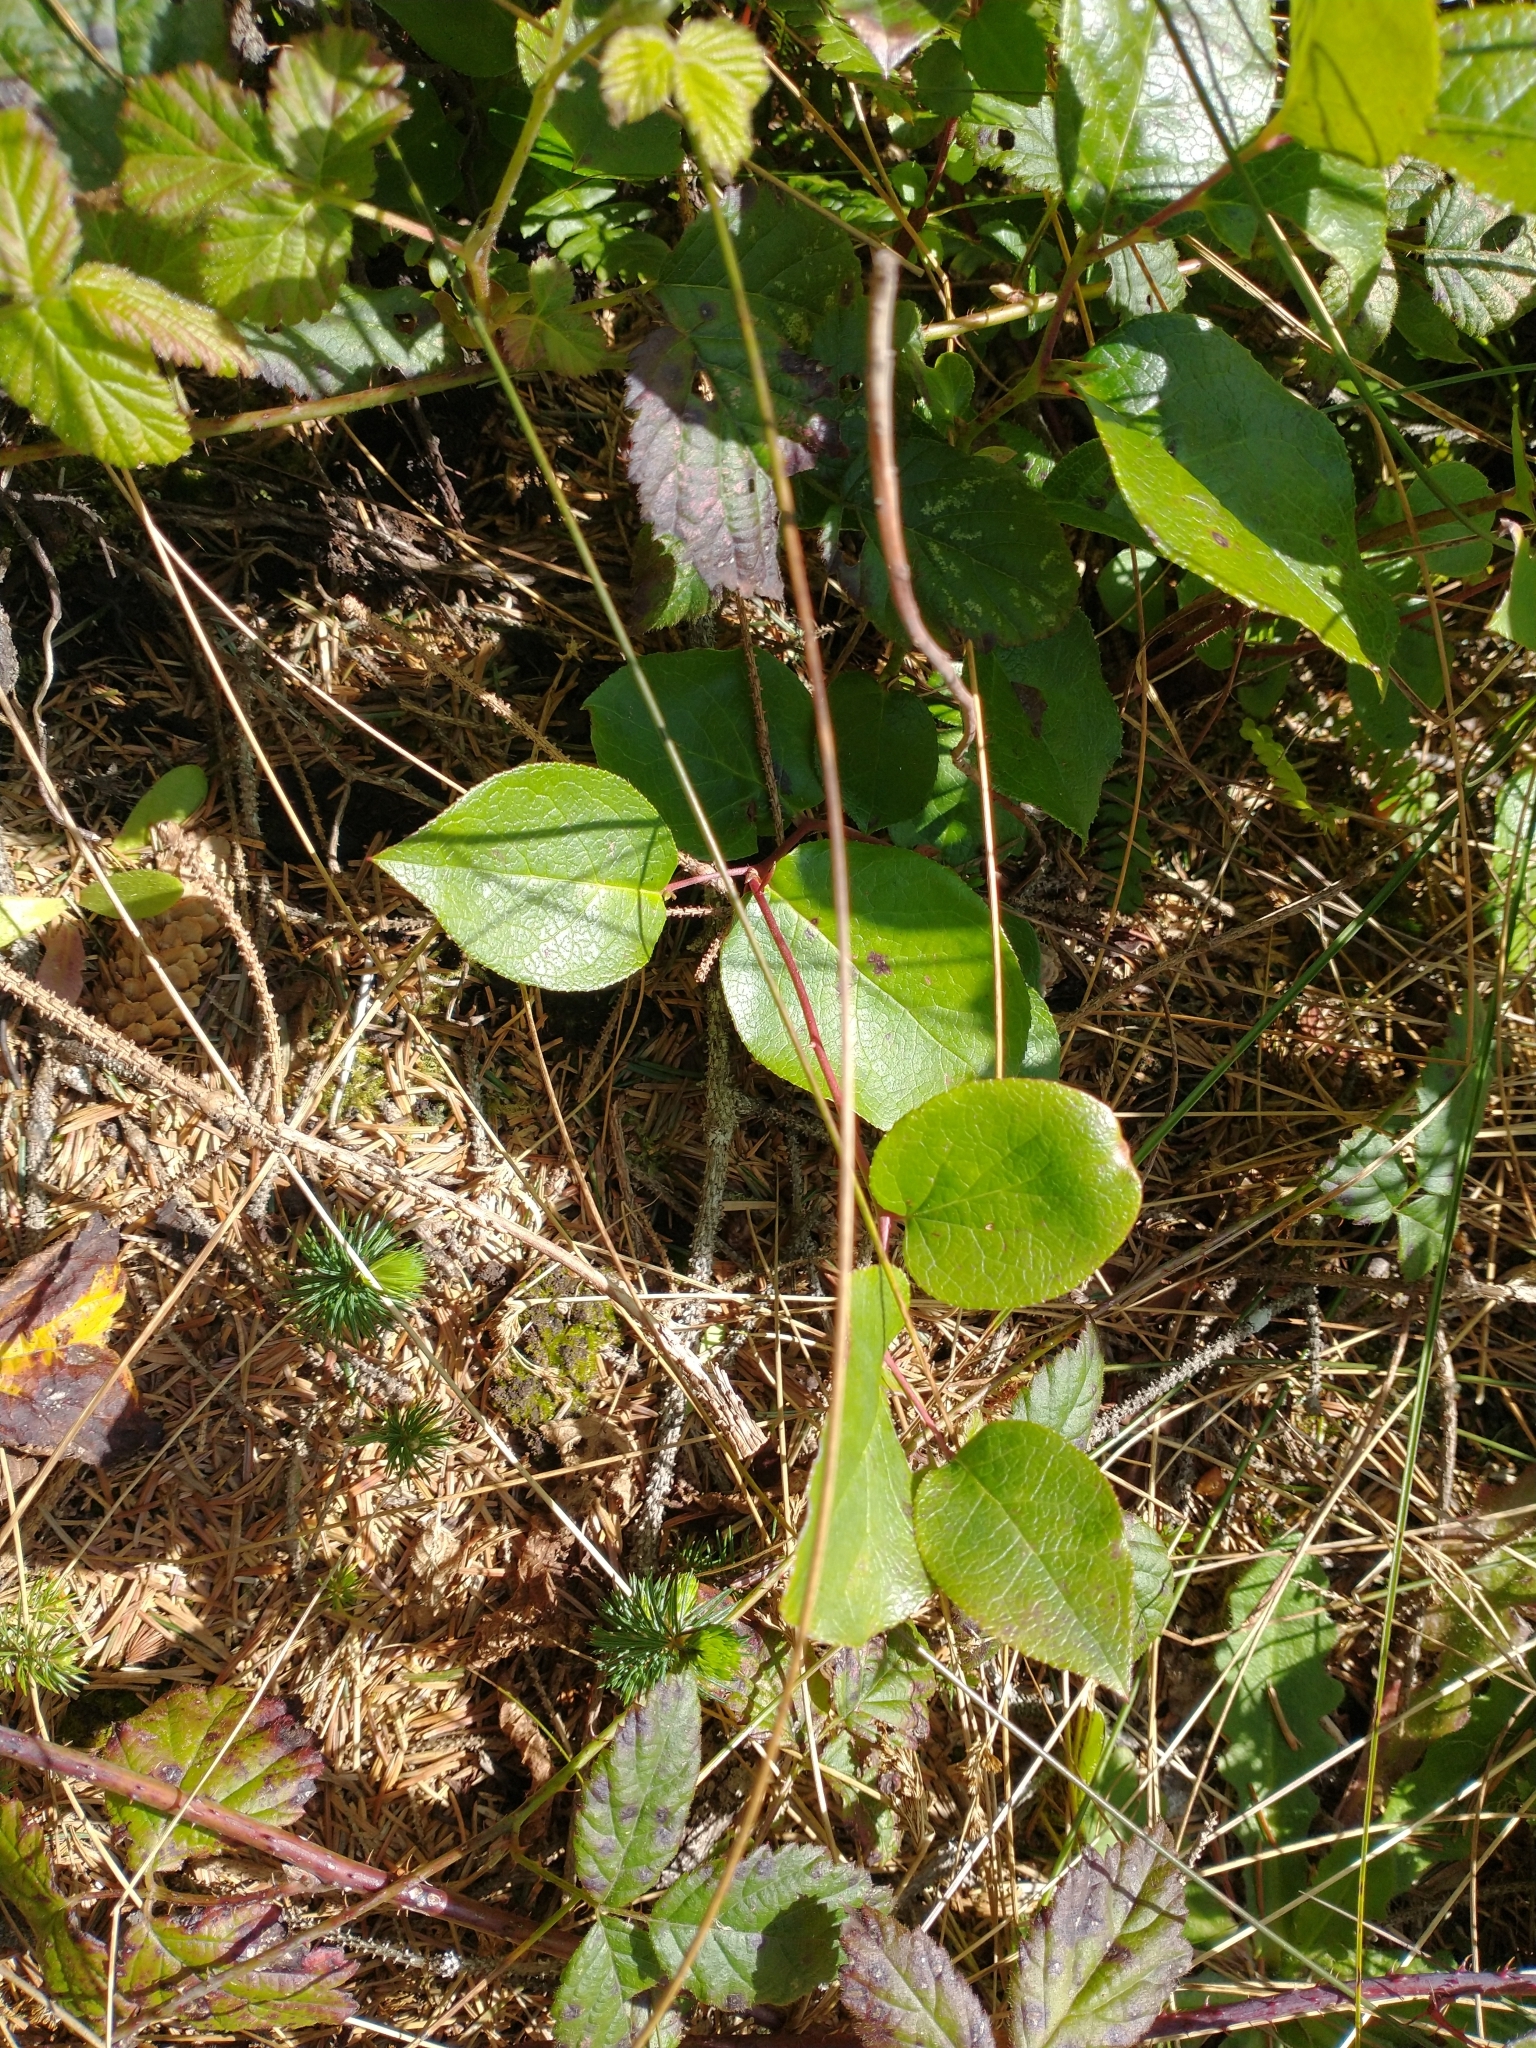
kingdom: Plantae
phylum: Tracheophyta
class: Magnoliopsida
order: Ericales
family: Ericaceae
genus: Gaultheria
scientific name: Gaultheria shallon
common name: Shallon
